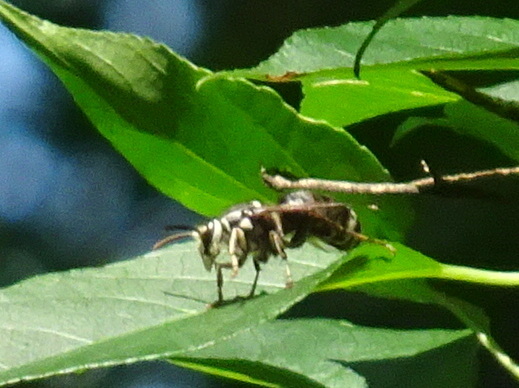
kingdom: Animalia
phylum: Arthropoda
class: Insecta
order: Hymenoptera
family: Vespidae
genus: Dolichovespula
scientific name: Dolichovespula maculata
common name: Bald-faced hornet
